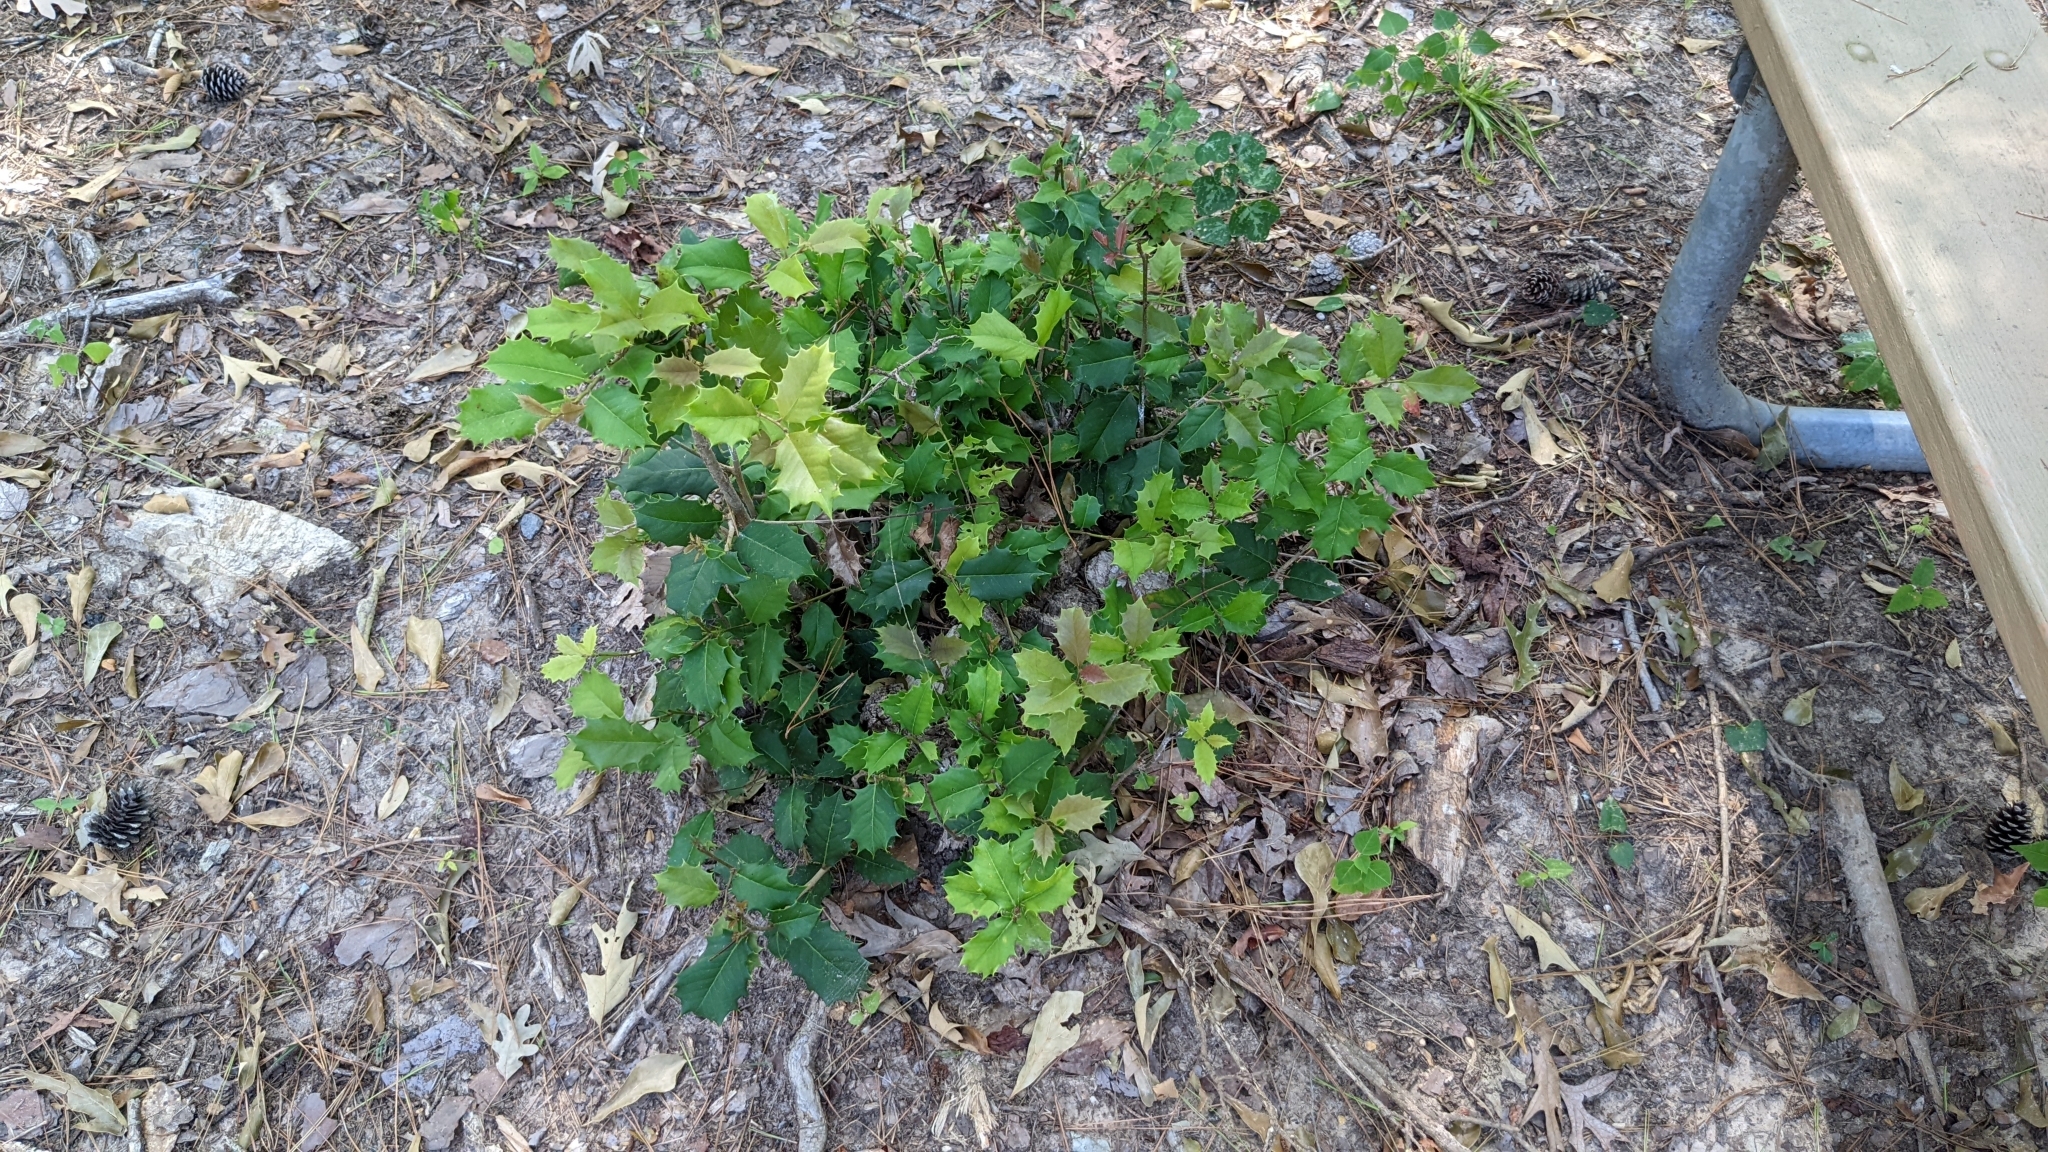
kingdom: Plantae
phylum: Tracheophyta
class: Magnoliopsida
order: Aquifoliales
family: Aquifoliaceae
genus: Ilex
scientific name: Ilex opaca
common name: American holly
